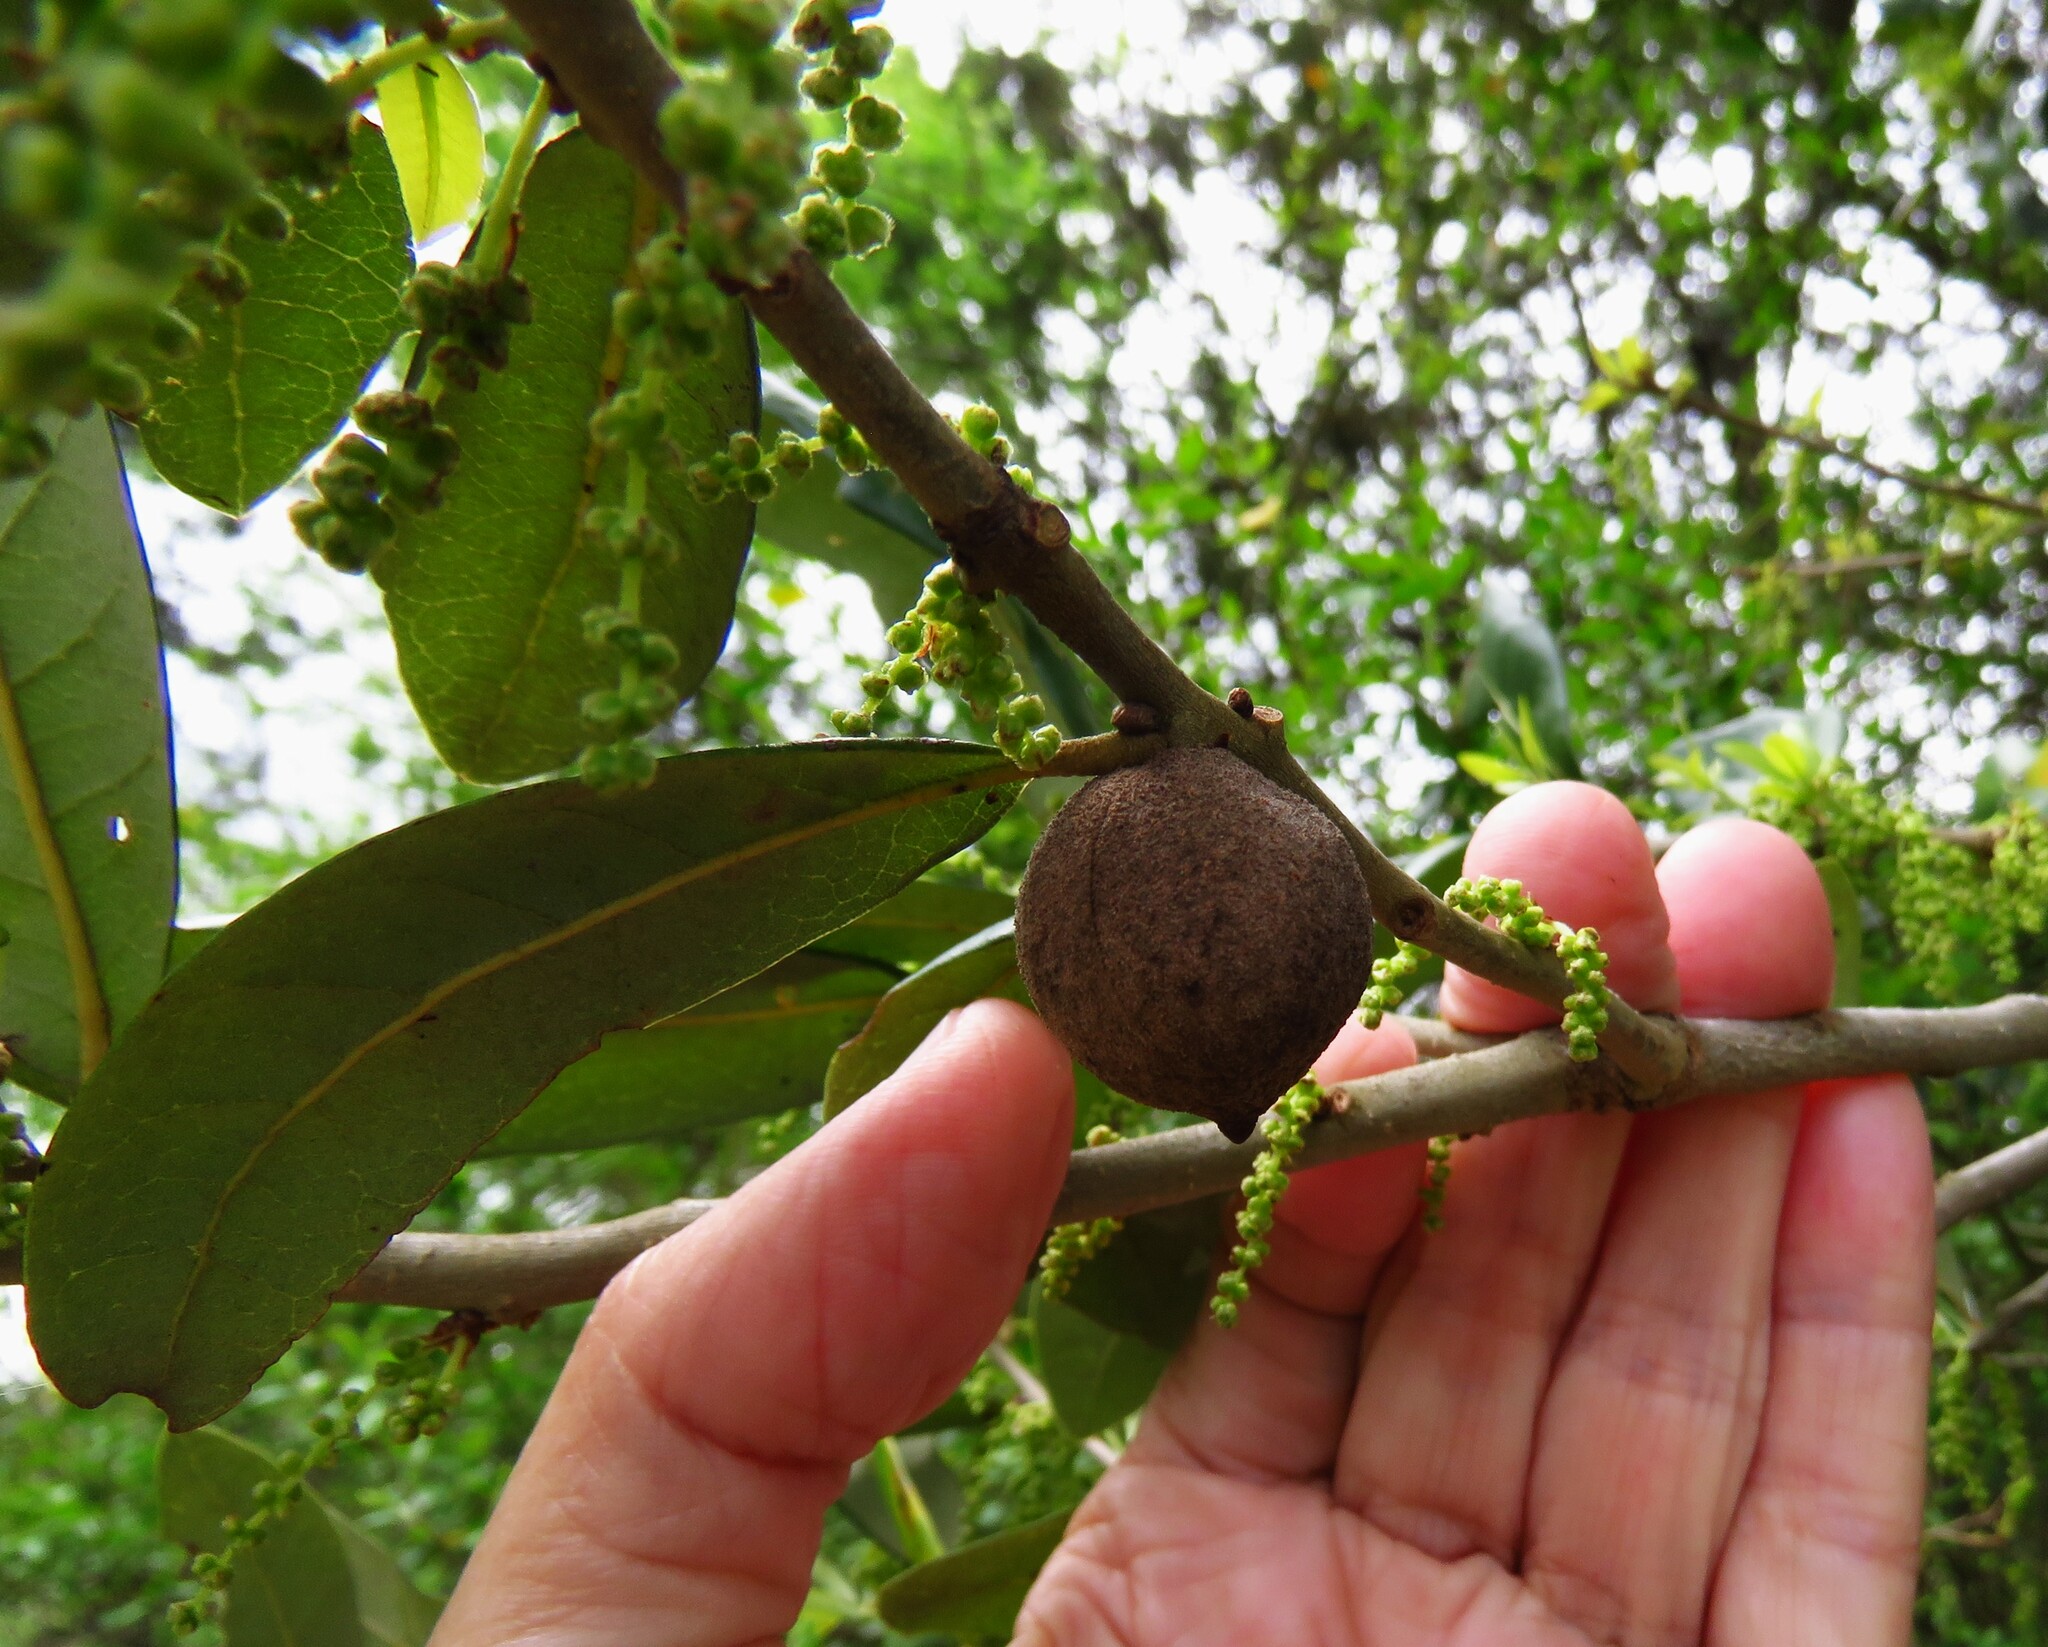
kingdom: Animalia
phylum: Arthropoda
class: Insecta
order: Hymenoptera
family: Cynipidae
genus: Disholcaspis
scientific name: Disholcaspis
